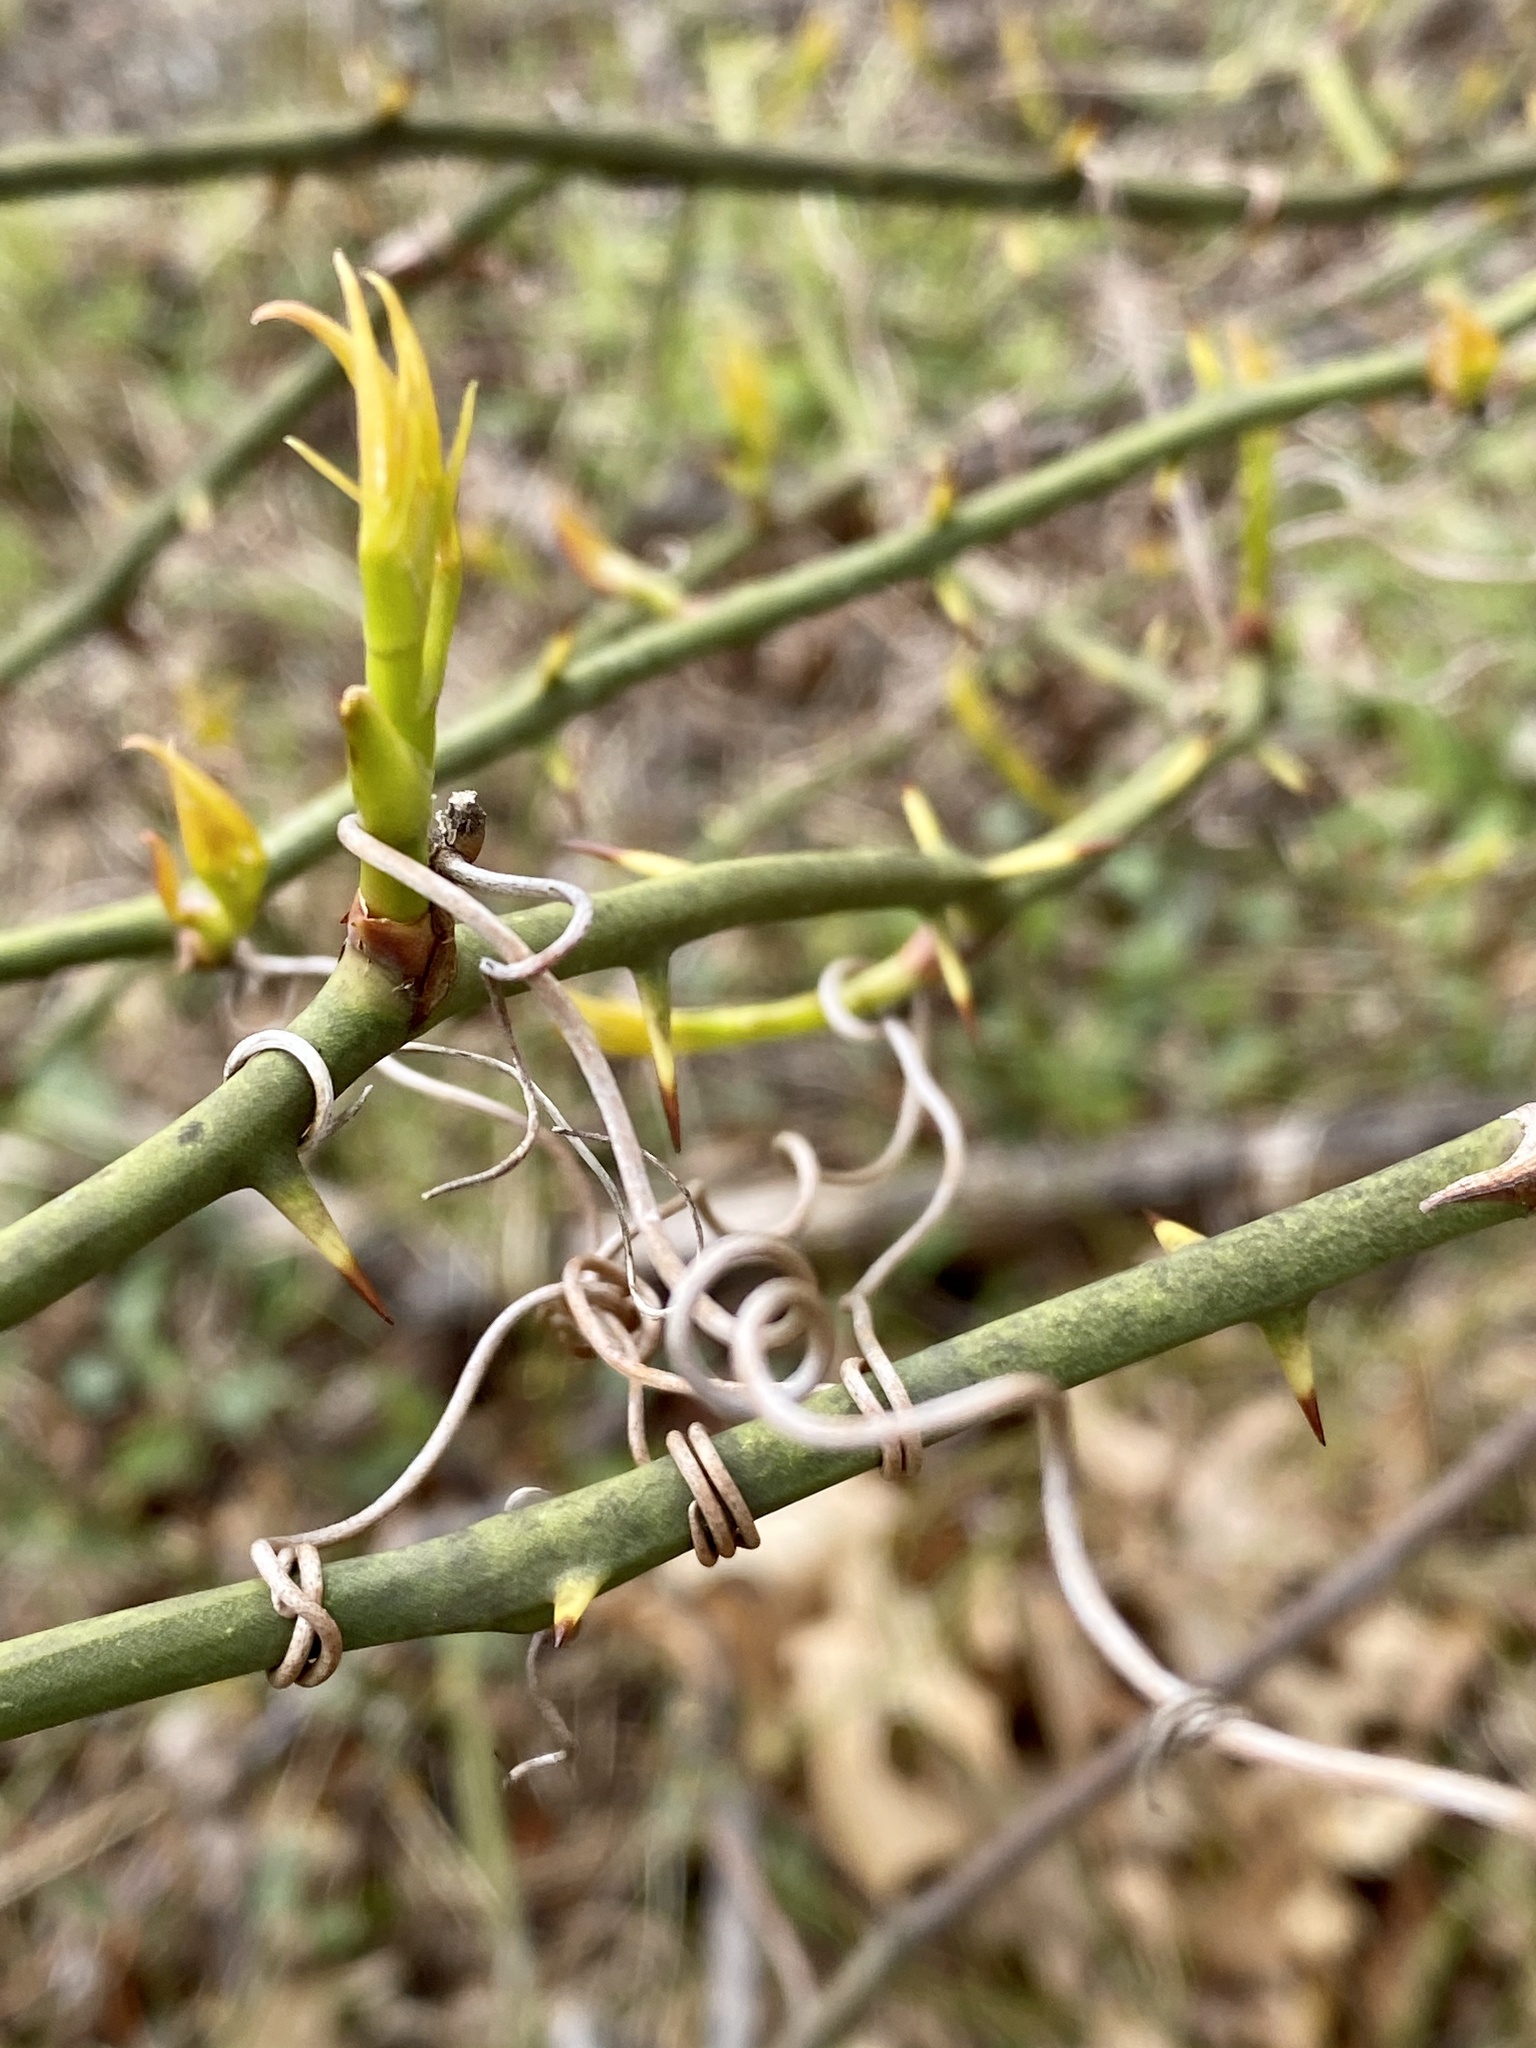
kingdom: Plantae
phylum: Tracheophyta
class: Liliopsida
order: Liliales
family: Smilacaceae
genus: Smilax
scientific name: Smilax rotundifolia
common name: Bullbriar
